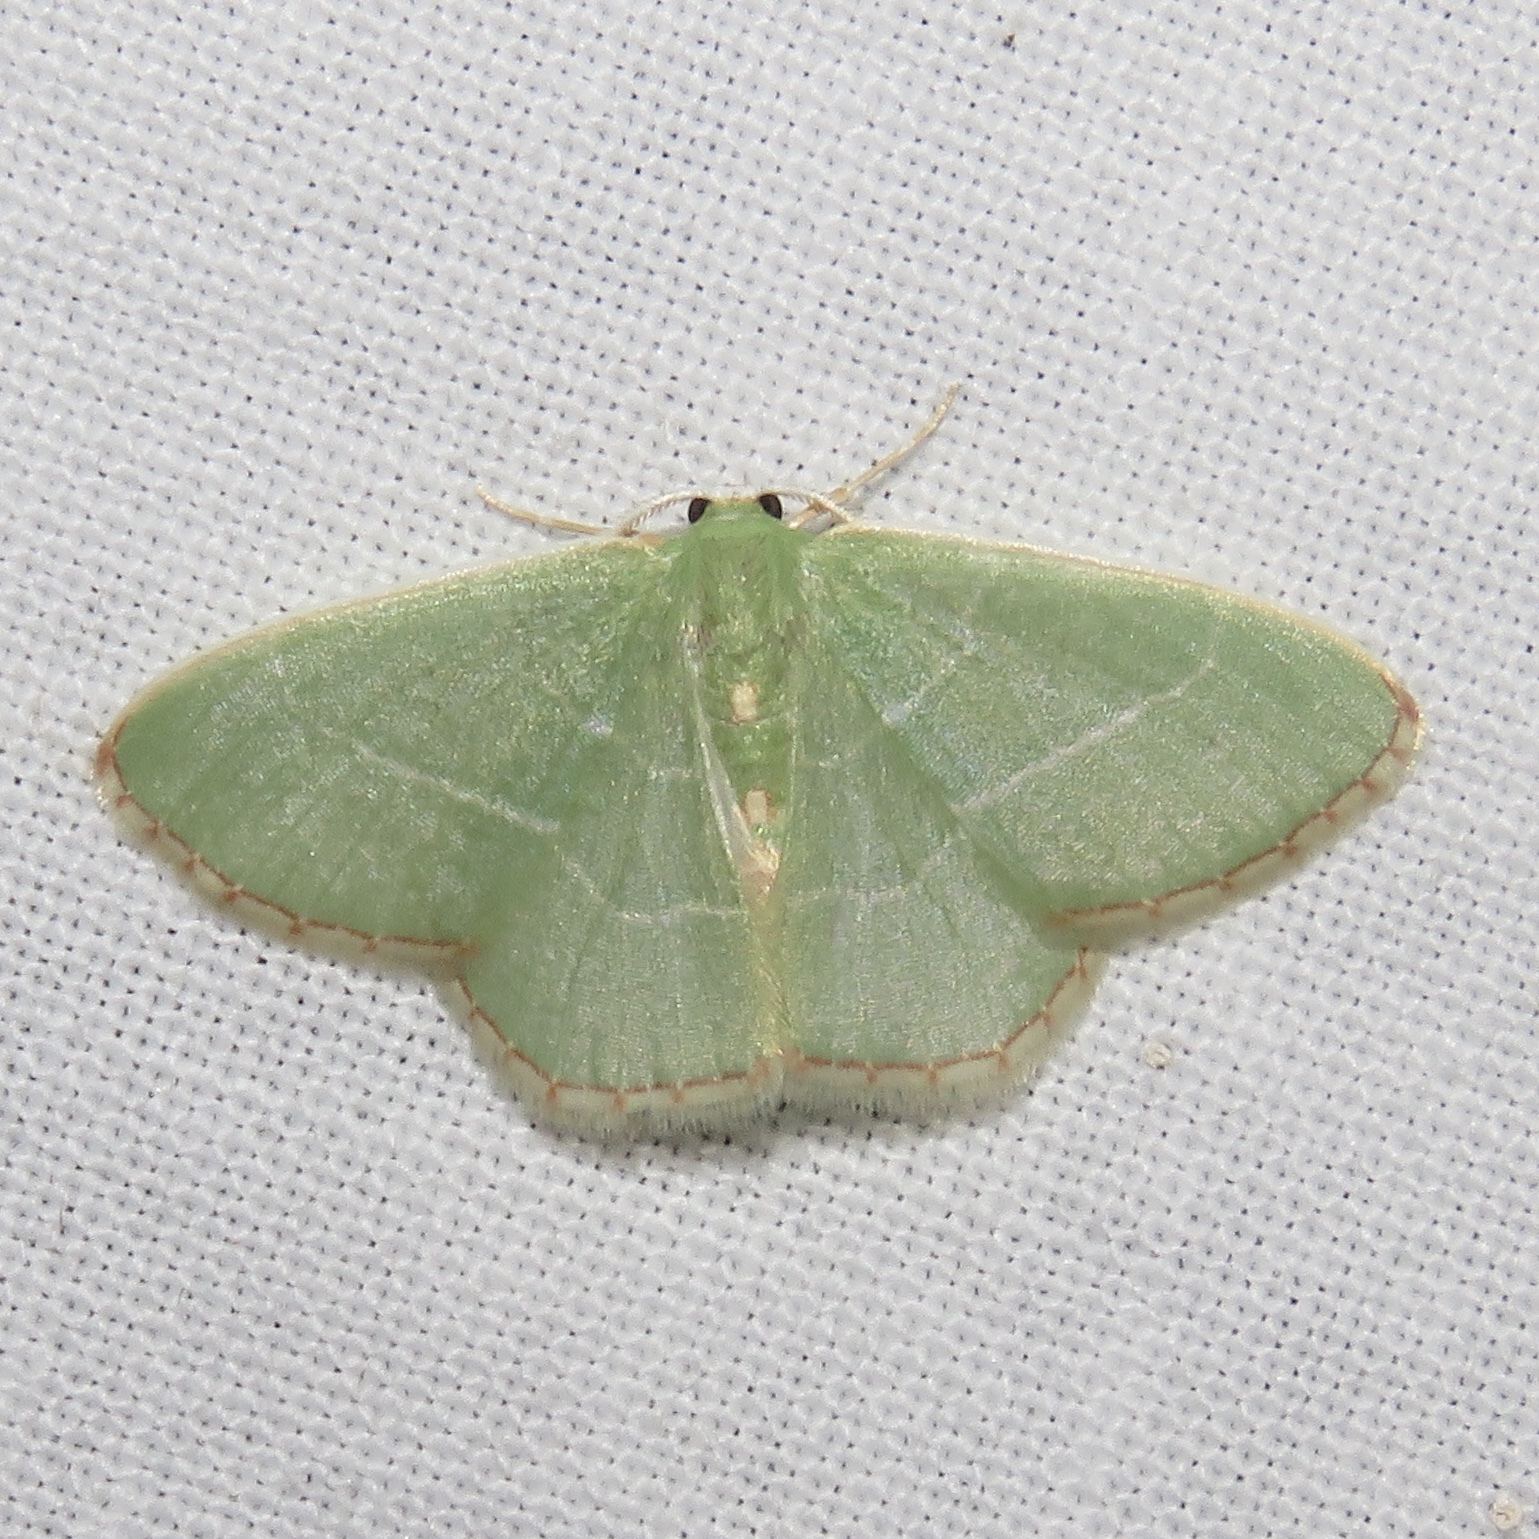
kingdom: Animalia
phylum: Arthropoda
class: Insecta
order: Lepidoptera
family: Geometridae
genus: Nemoria
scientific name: Nemoria bistriaria
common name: Red-fringed emerald
